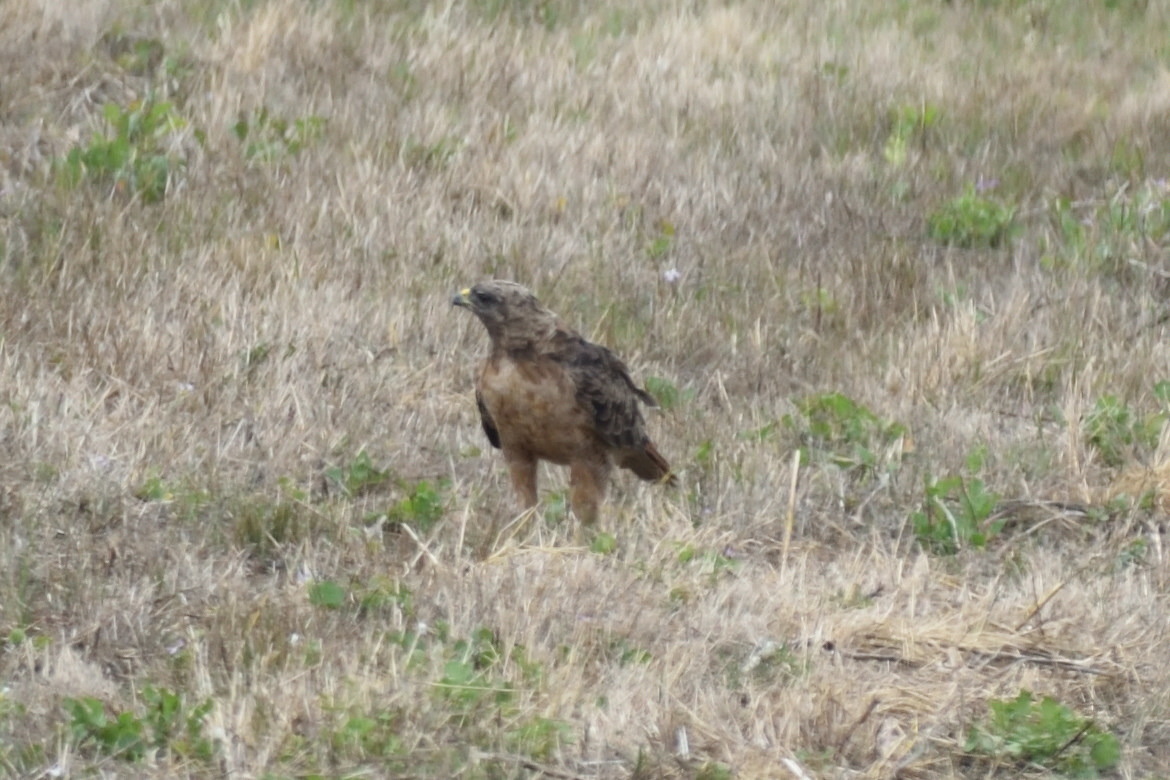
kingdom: Animalia
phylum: Chordata
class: Aves
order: Accipitriformes
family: Accipitridae
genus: Buteo
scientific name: Buteo jamaicensis
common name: Red-tailed hawk
